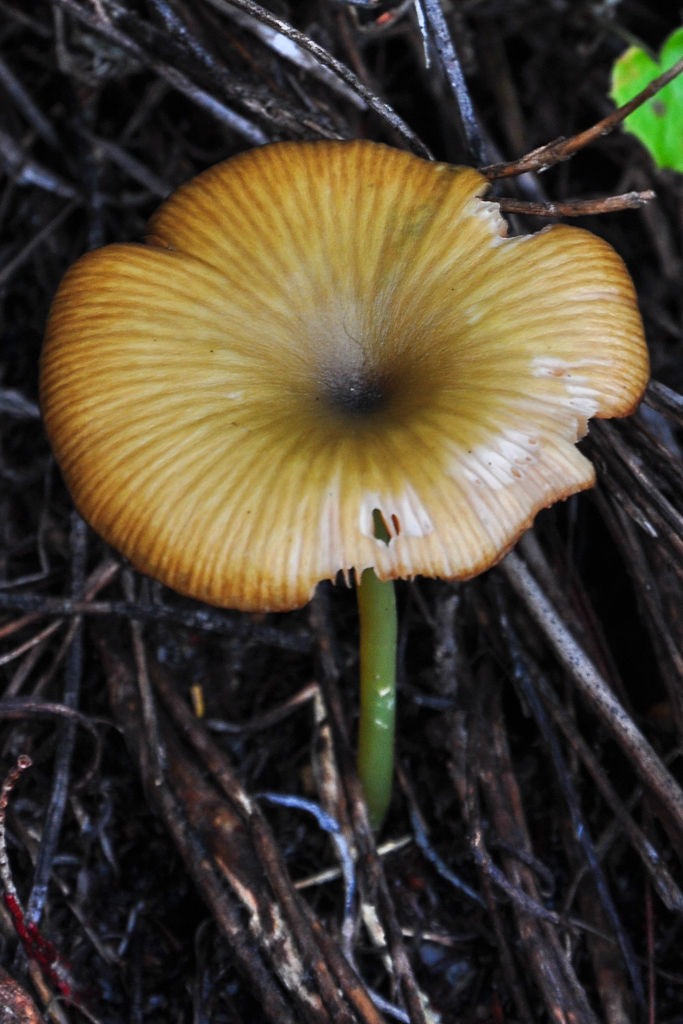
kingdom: Fungi
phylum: Basidiomycota
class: Agaricomycetes
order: Agaricales
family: Entolomataceae
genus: Entoloma
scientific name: Entoloma incanum
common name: Mousepee pinkgill
